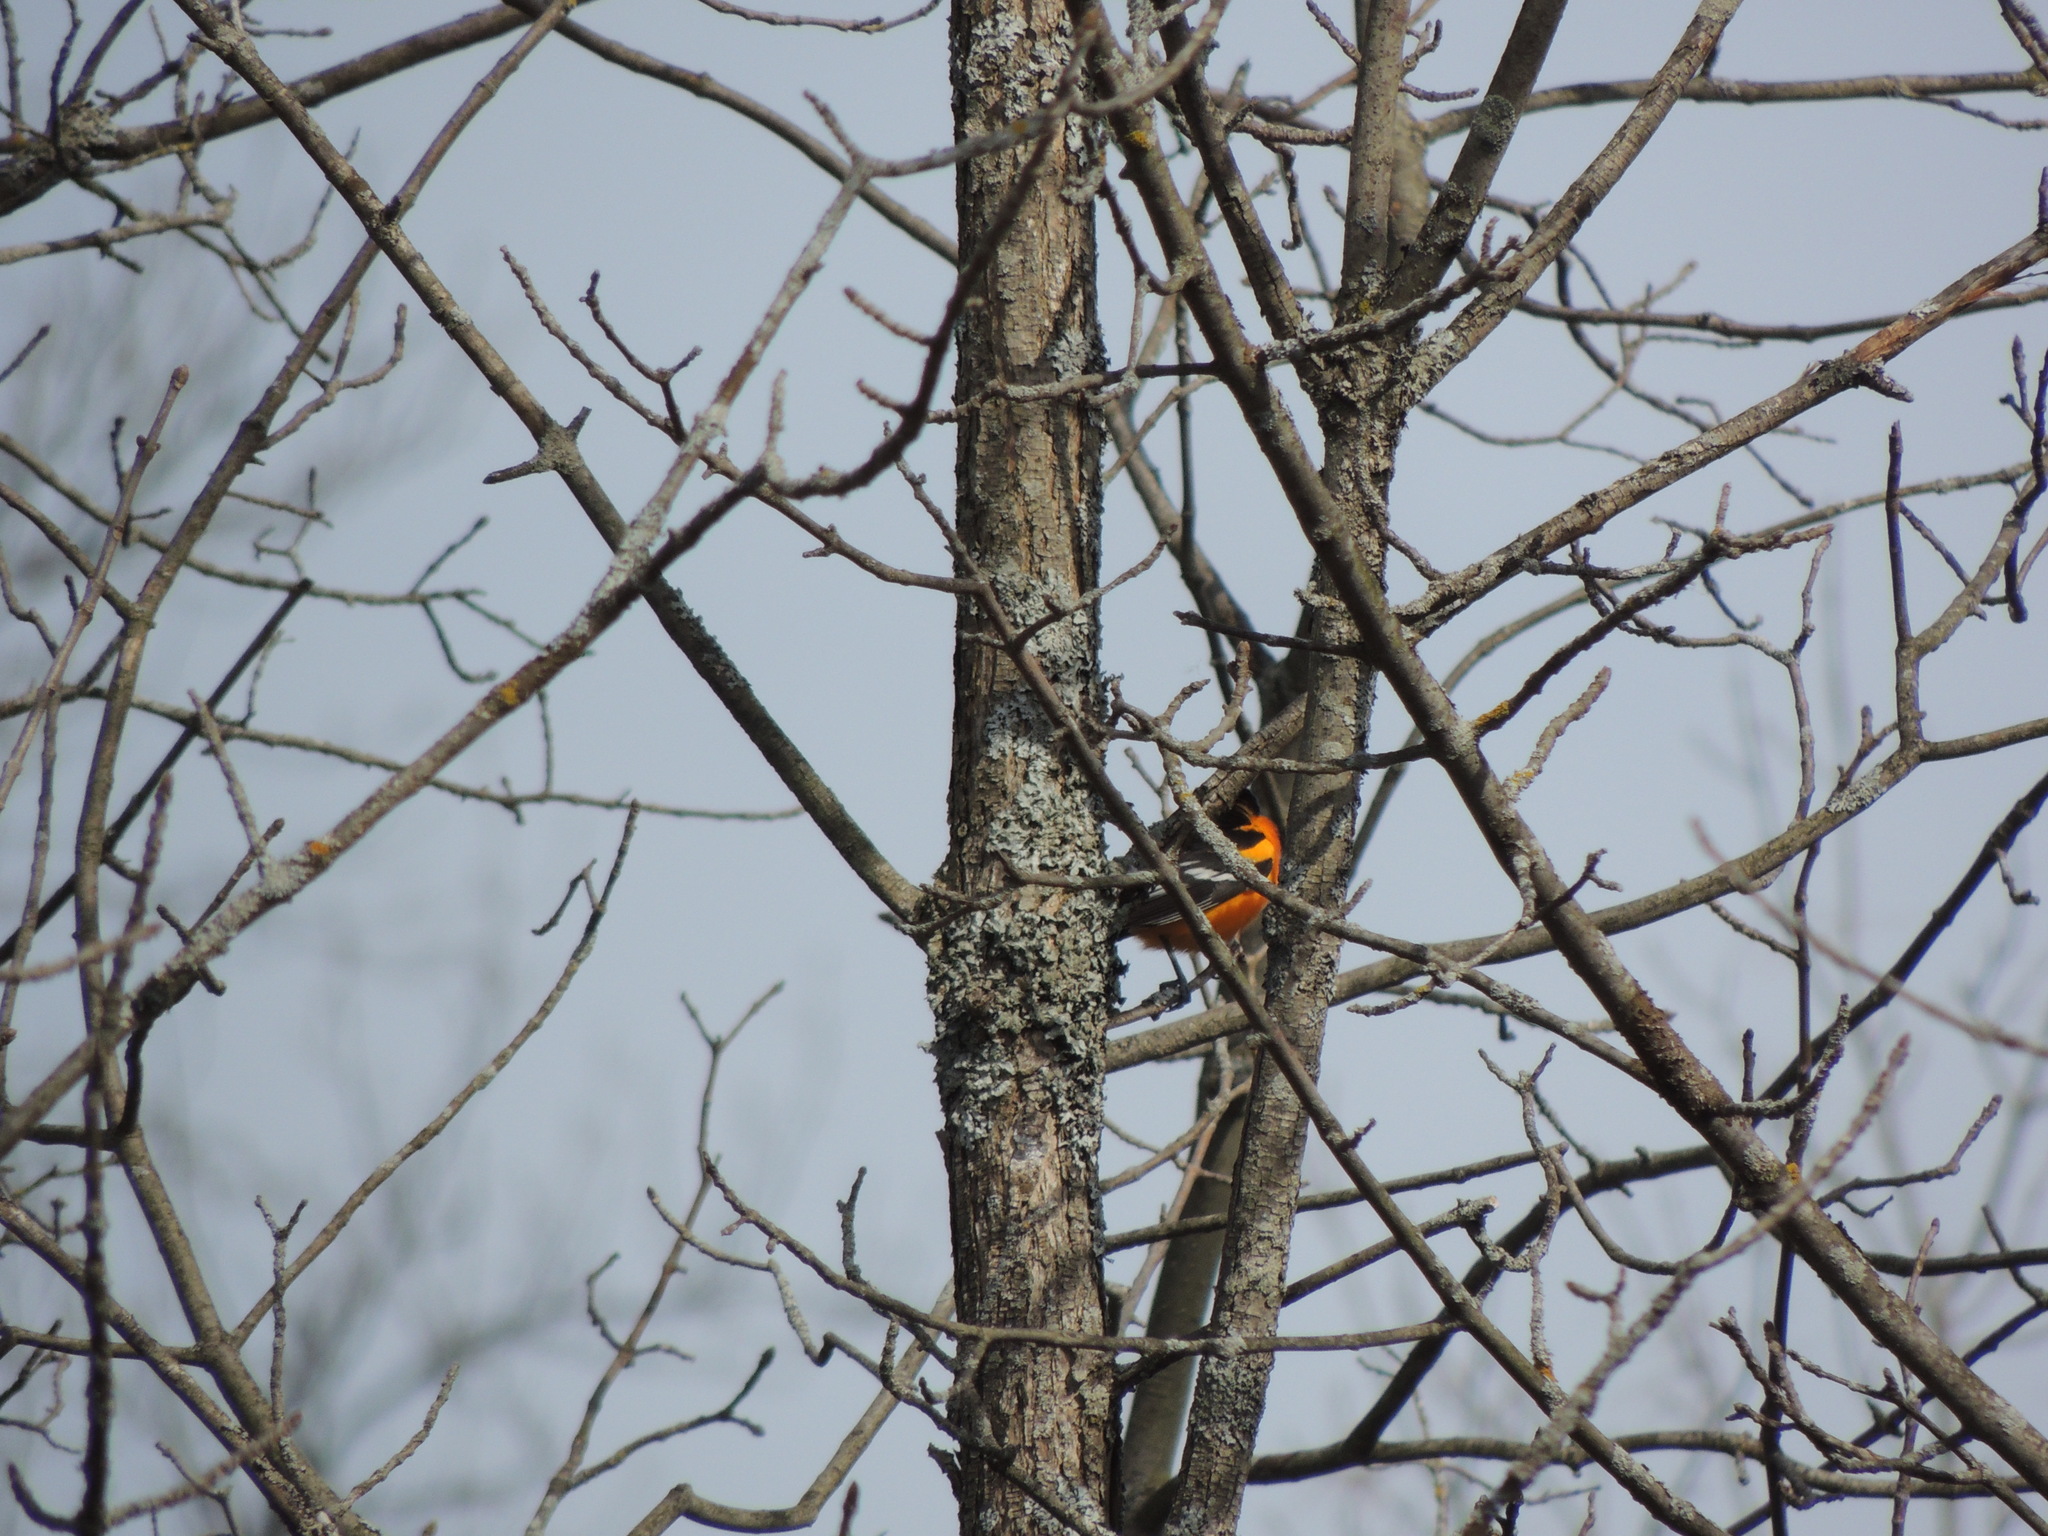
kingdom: Animalia
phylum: Chordata
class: Aves
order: Passeriformes
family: Icteridae
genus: Icterus
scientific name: Icterus galbula
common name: Baltimore oriole
